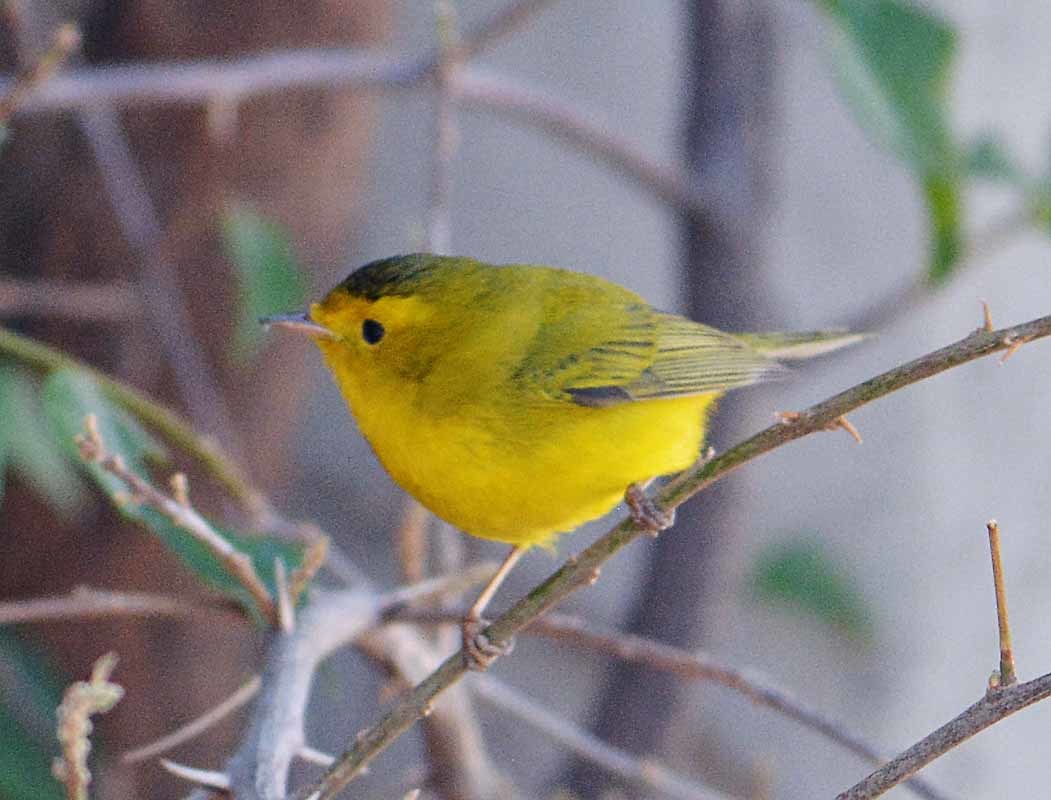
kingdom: Animalia
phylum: Chordata
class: Aves
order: Passeriformes
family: Parulidae
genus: Cardellina
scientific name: Cardellina pusilla
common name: Wilson's warbler
